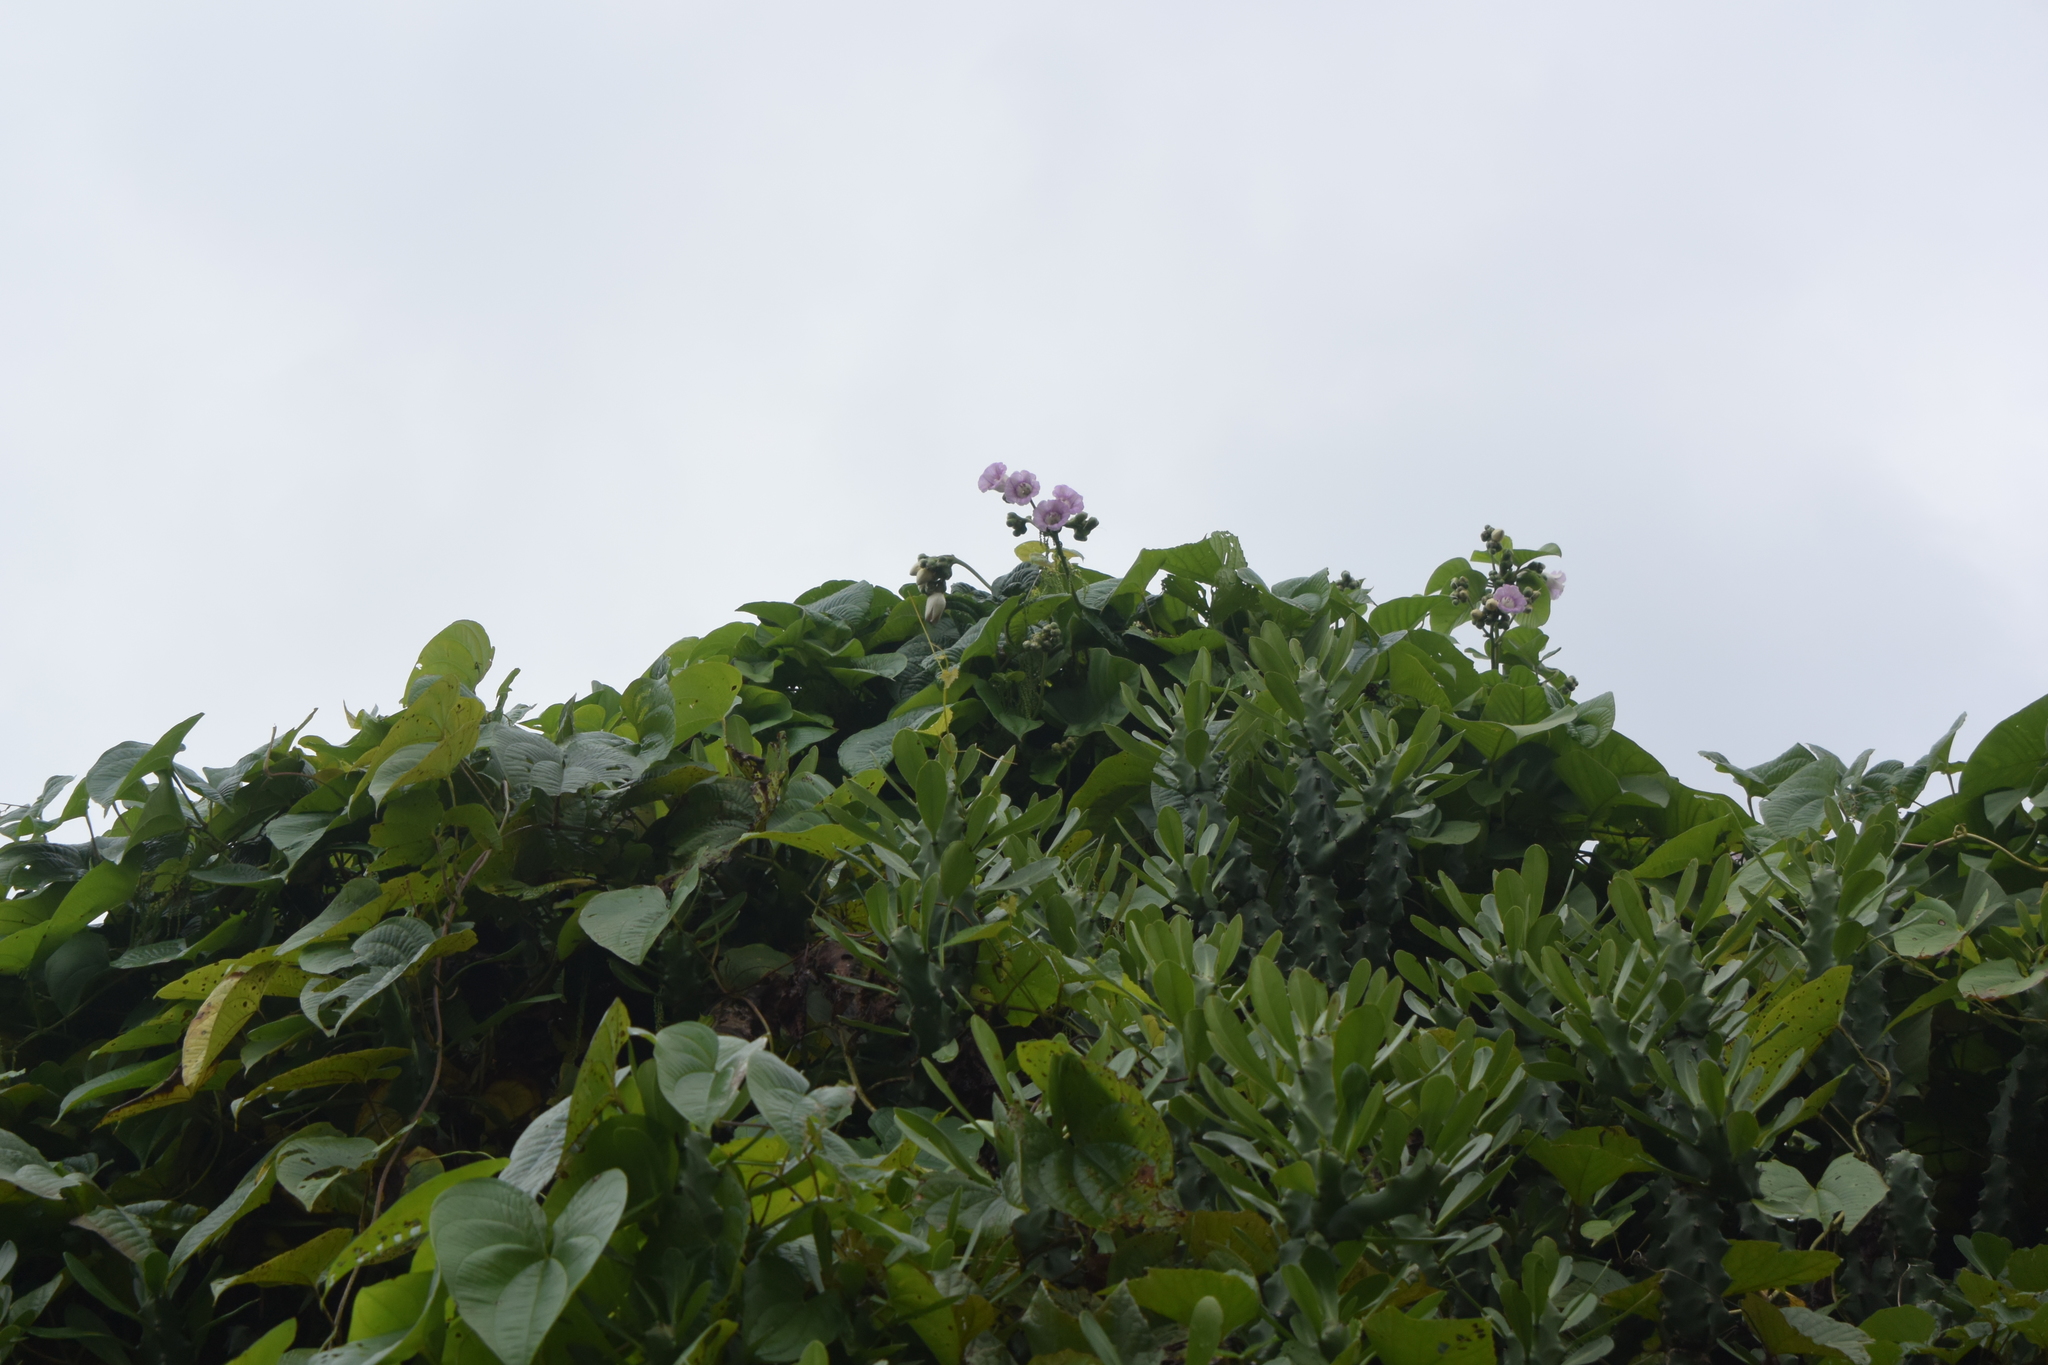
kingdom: Plantae
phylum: Tracheophyta
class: Magnoliopsida
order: Solanales
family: Convolvulaceae
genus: Argyreia
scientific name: Argyreia capitiformis
